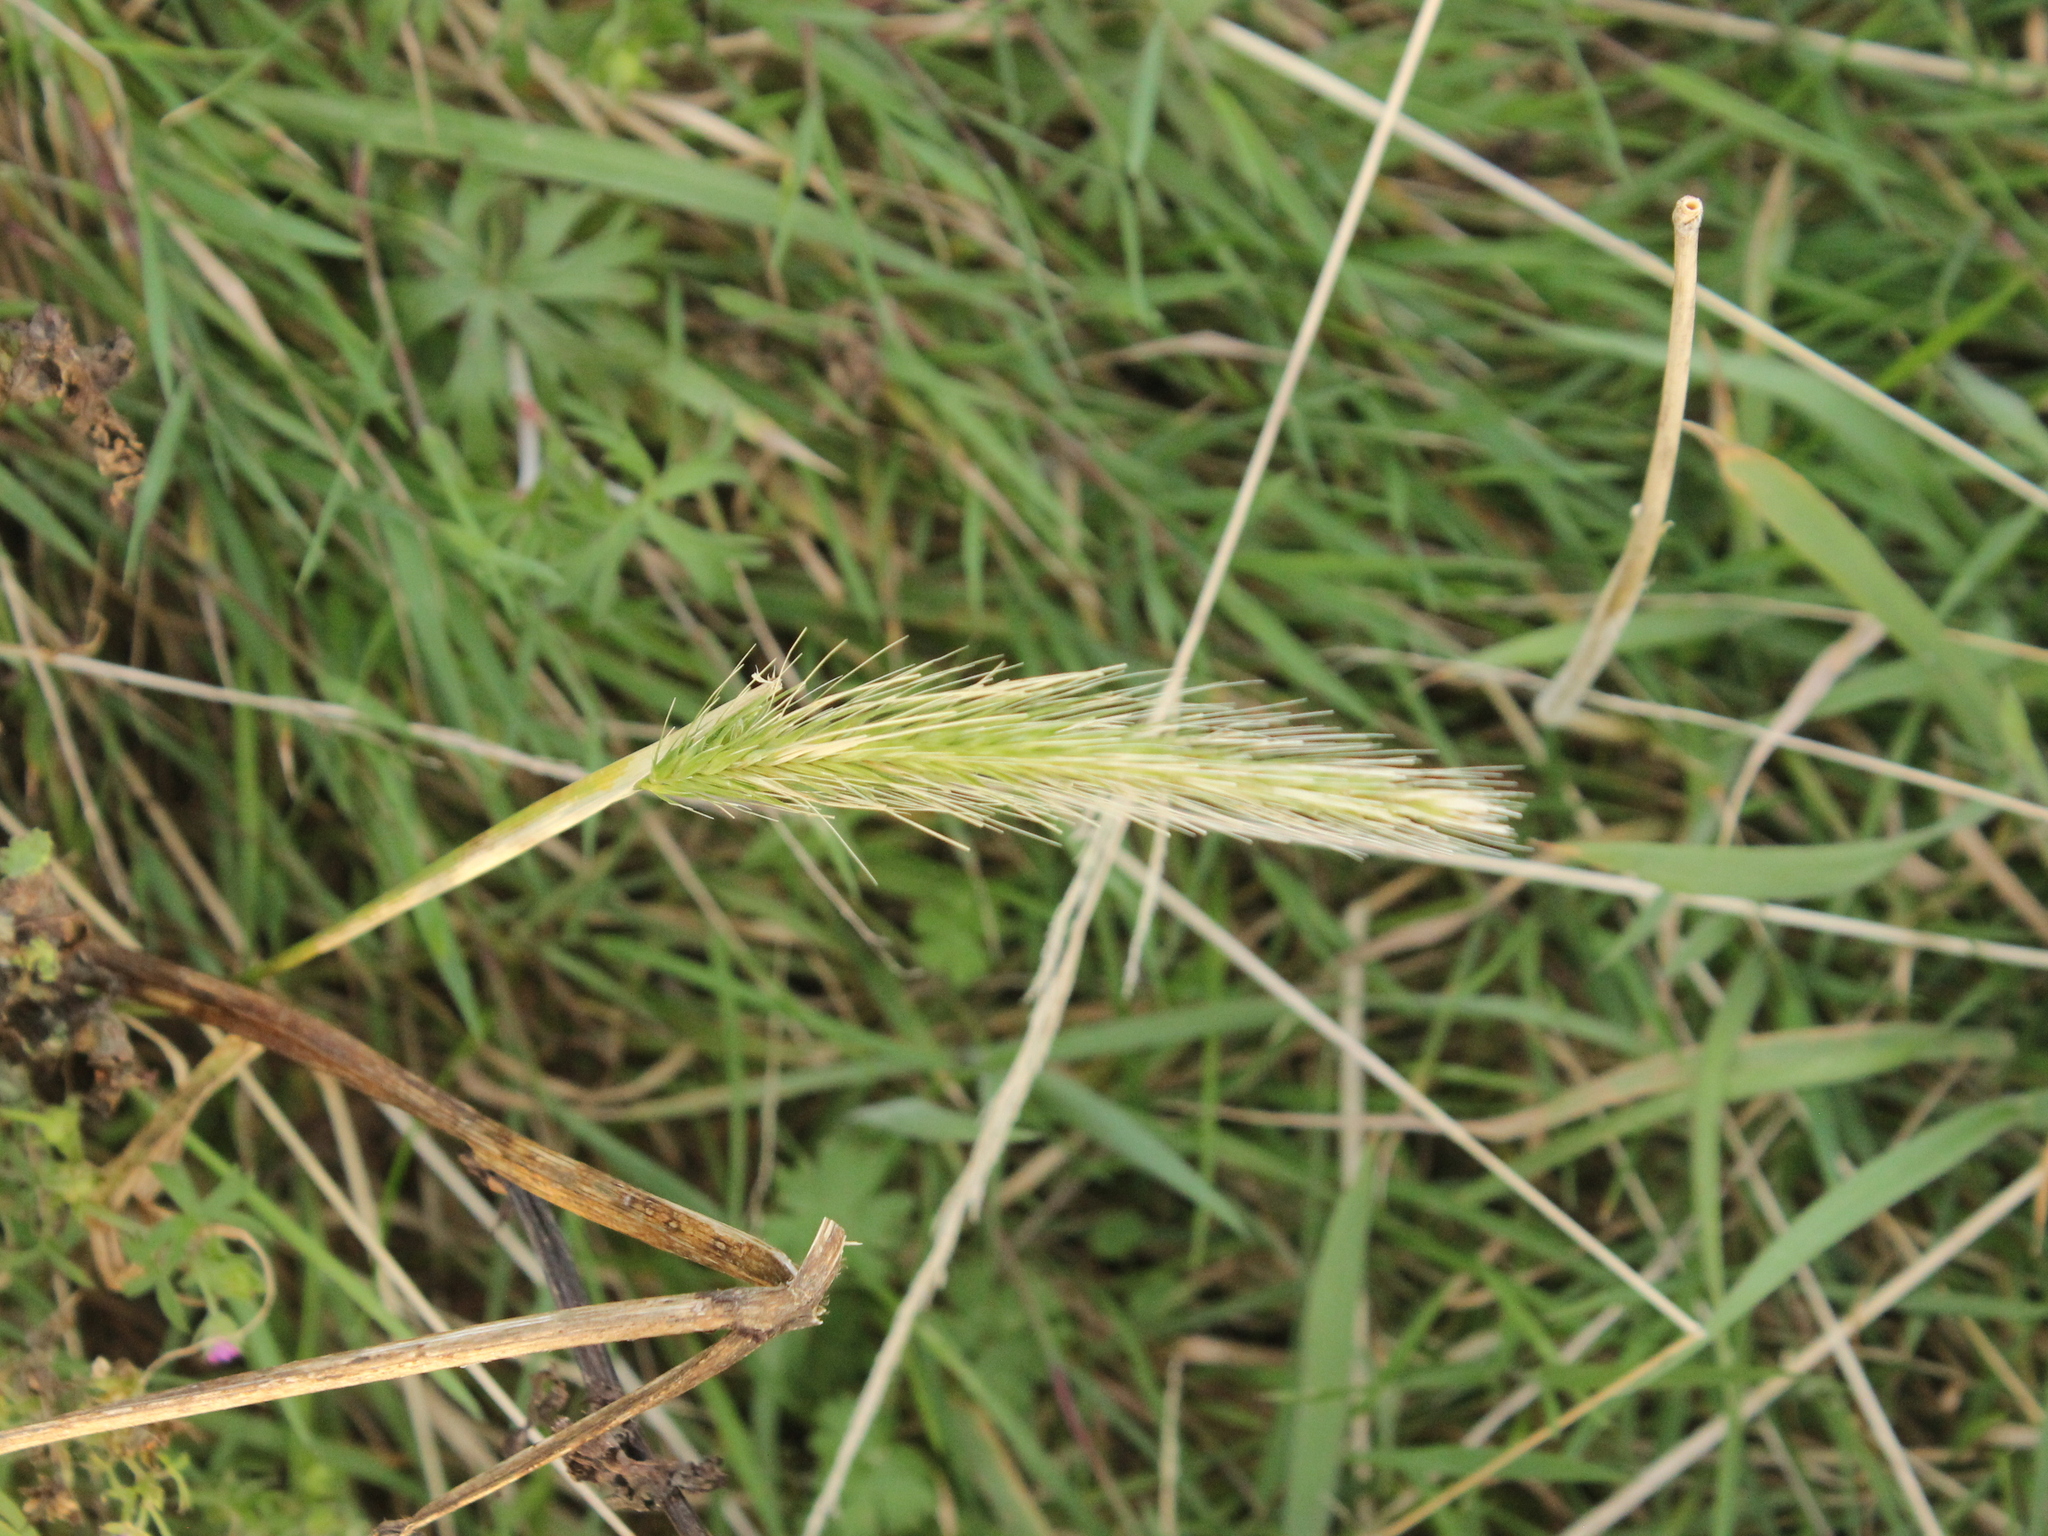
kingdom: Plantae
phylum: Tracheophyta
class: Liliopsida
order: Poales
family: Poaceae
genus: Hordeum
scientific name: Hordeum murinum
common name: Wall barley
